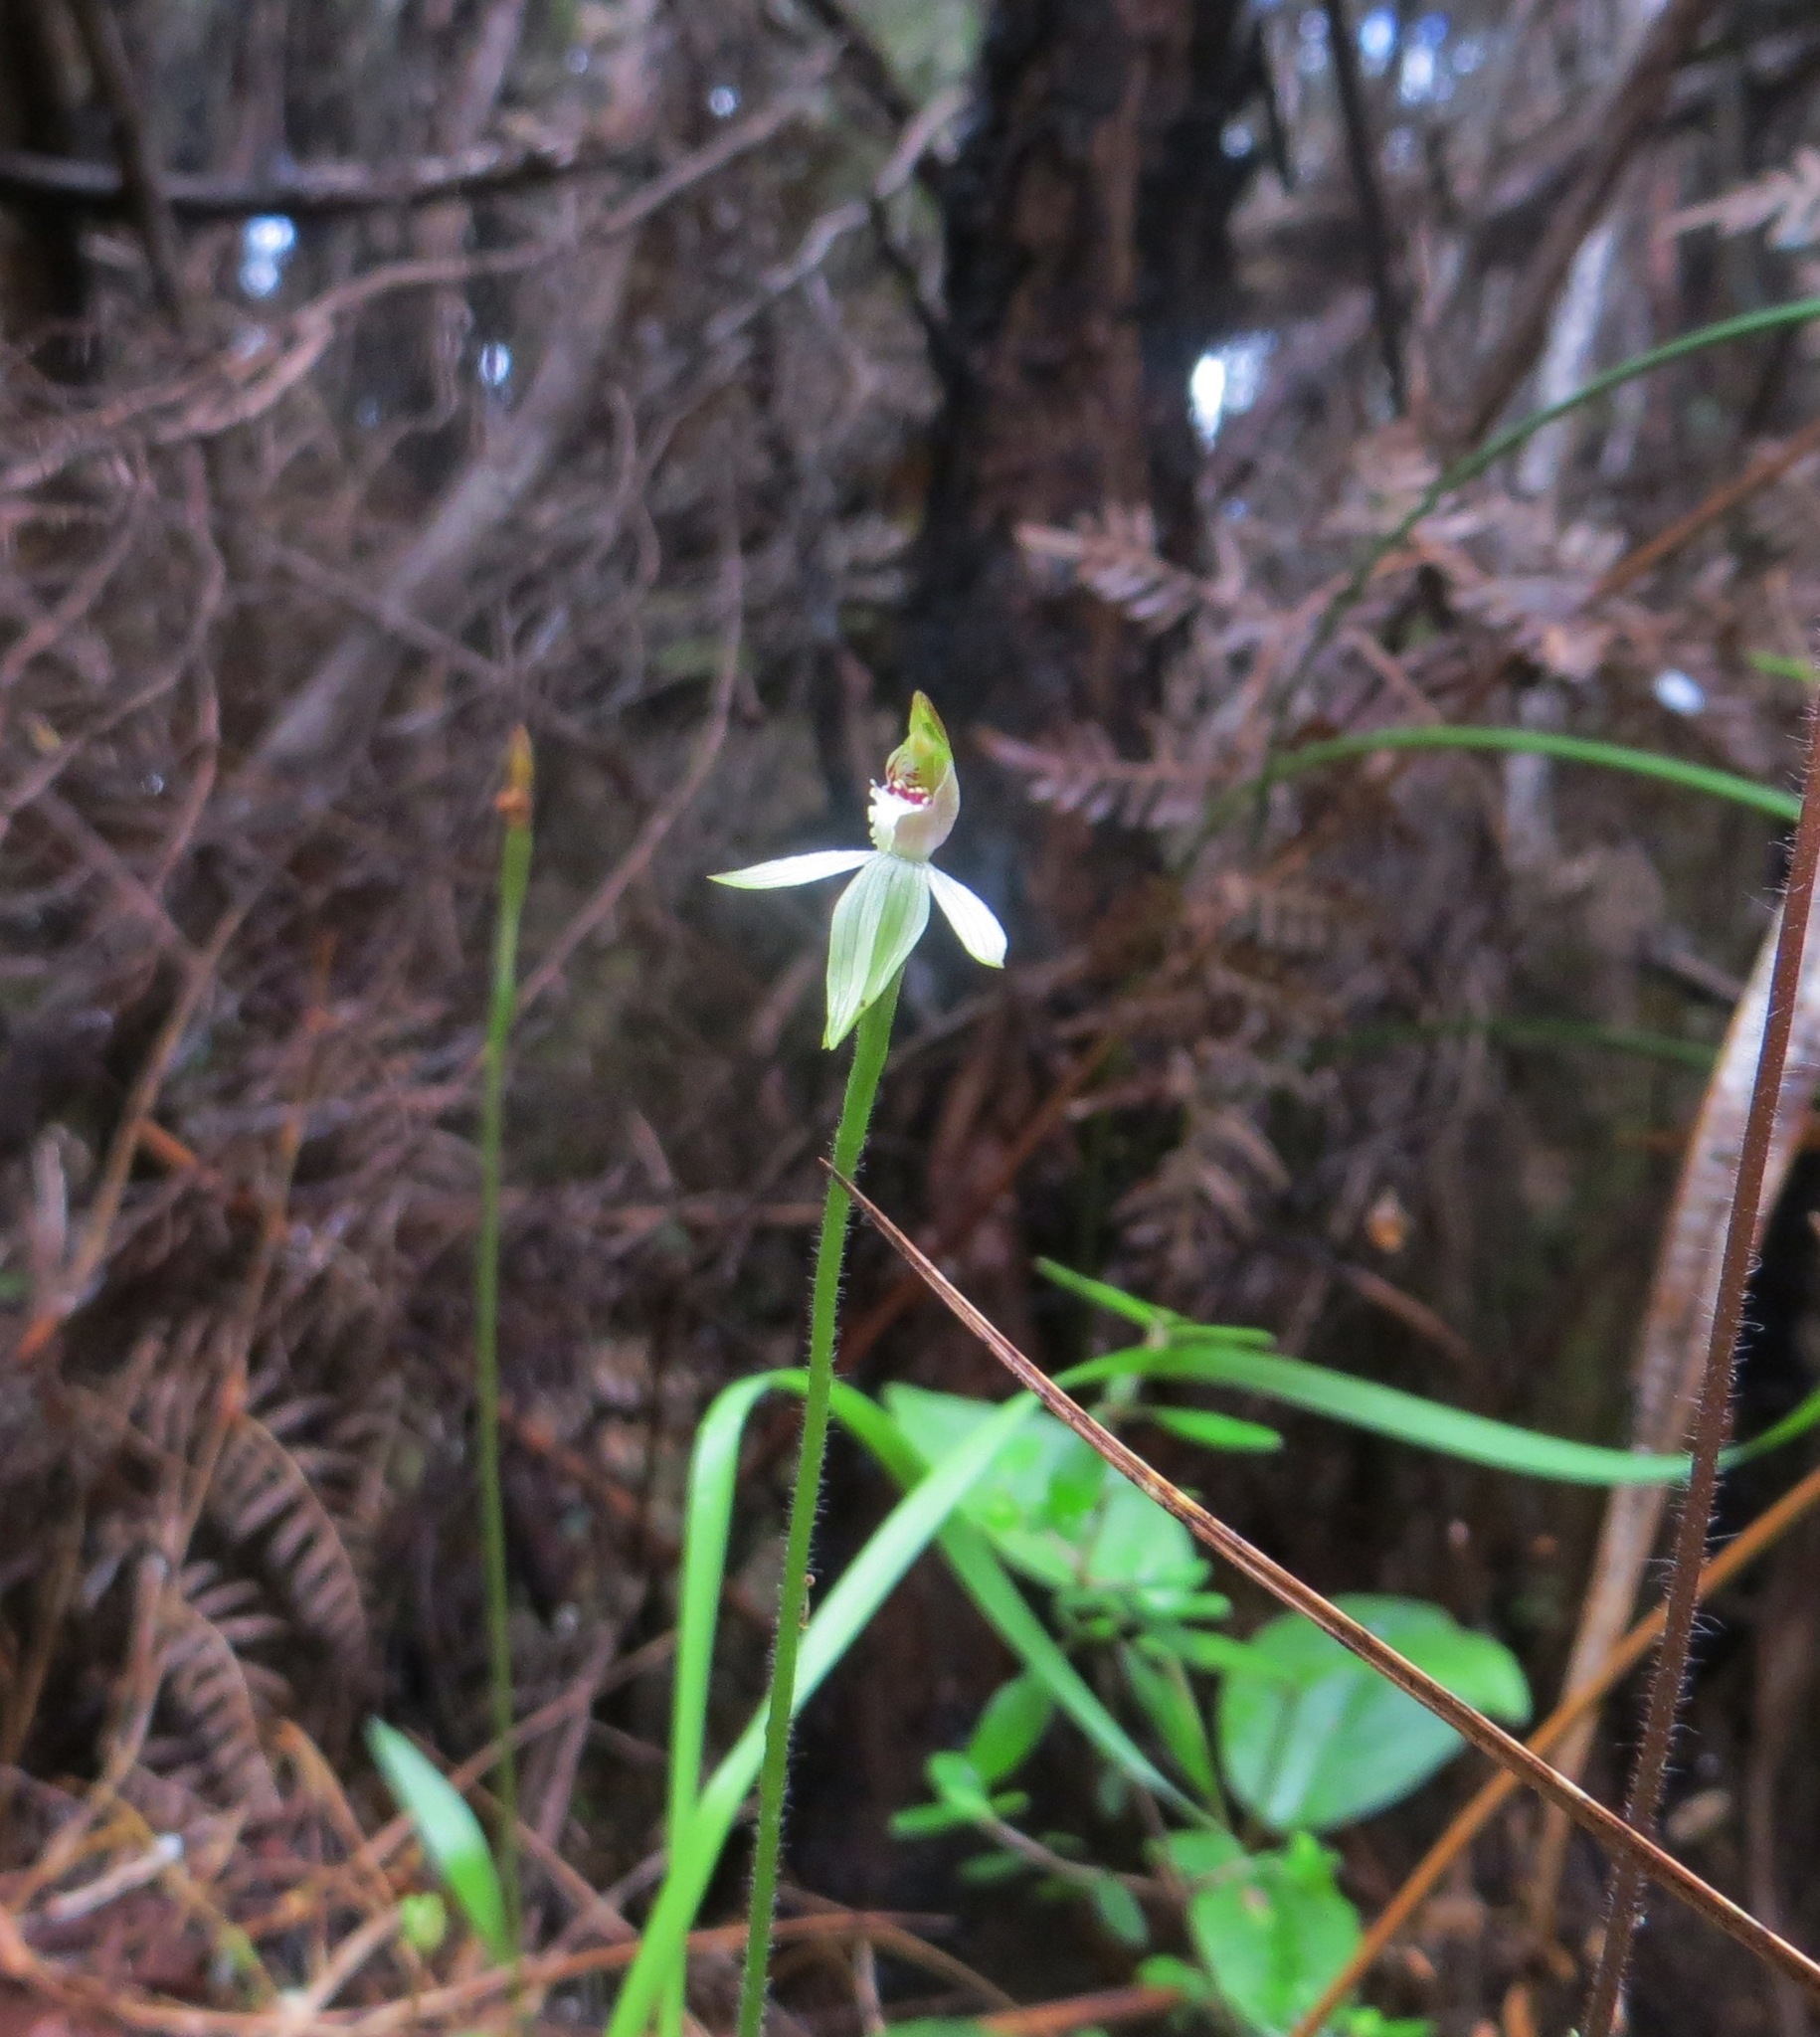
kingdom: Plantae
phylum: Tracheophyta
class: Liliopsida
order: Asparagales
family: Orchidaceae
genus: Caladenia
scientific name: Caladenia chlorostyla
